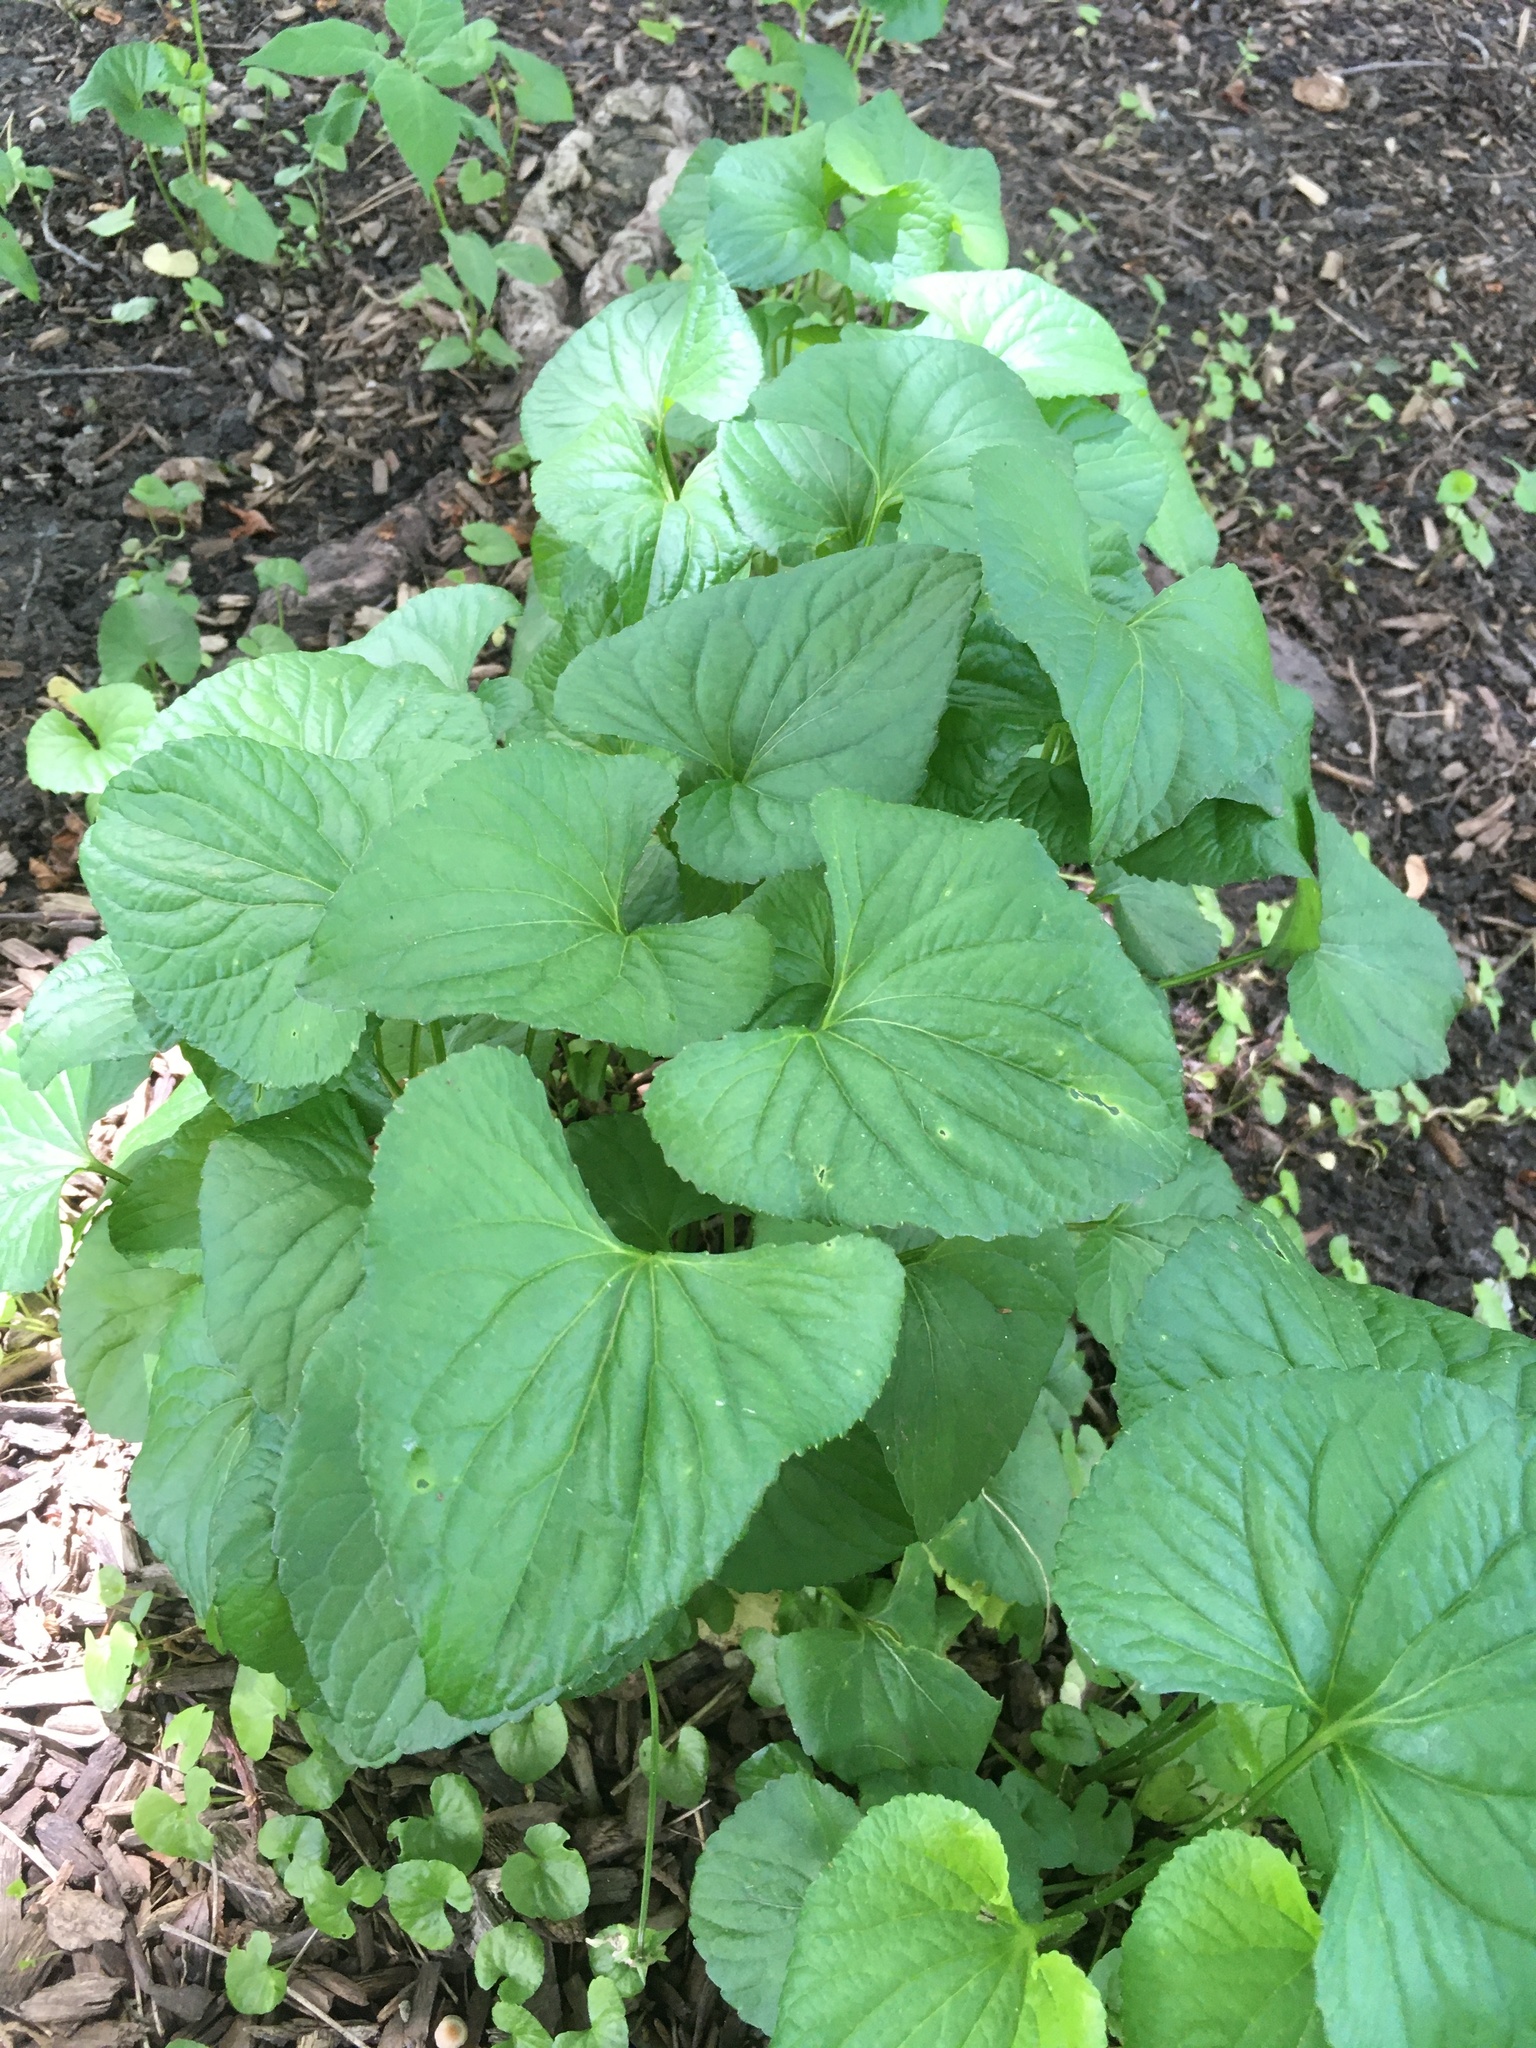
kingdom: Plantae
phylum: Tracheophyta
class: Magnoliopsida
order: Malpighiales
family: Violaceae
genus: Viola
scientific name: Viola cucullata
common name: Marsh blue violet
